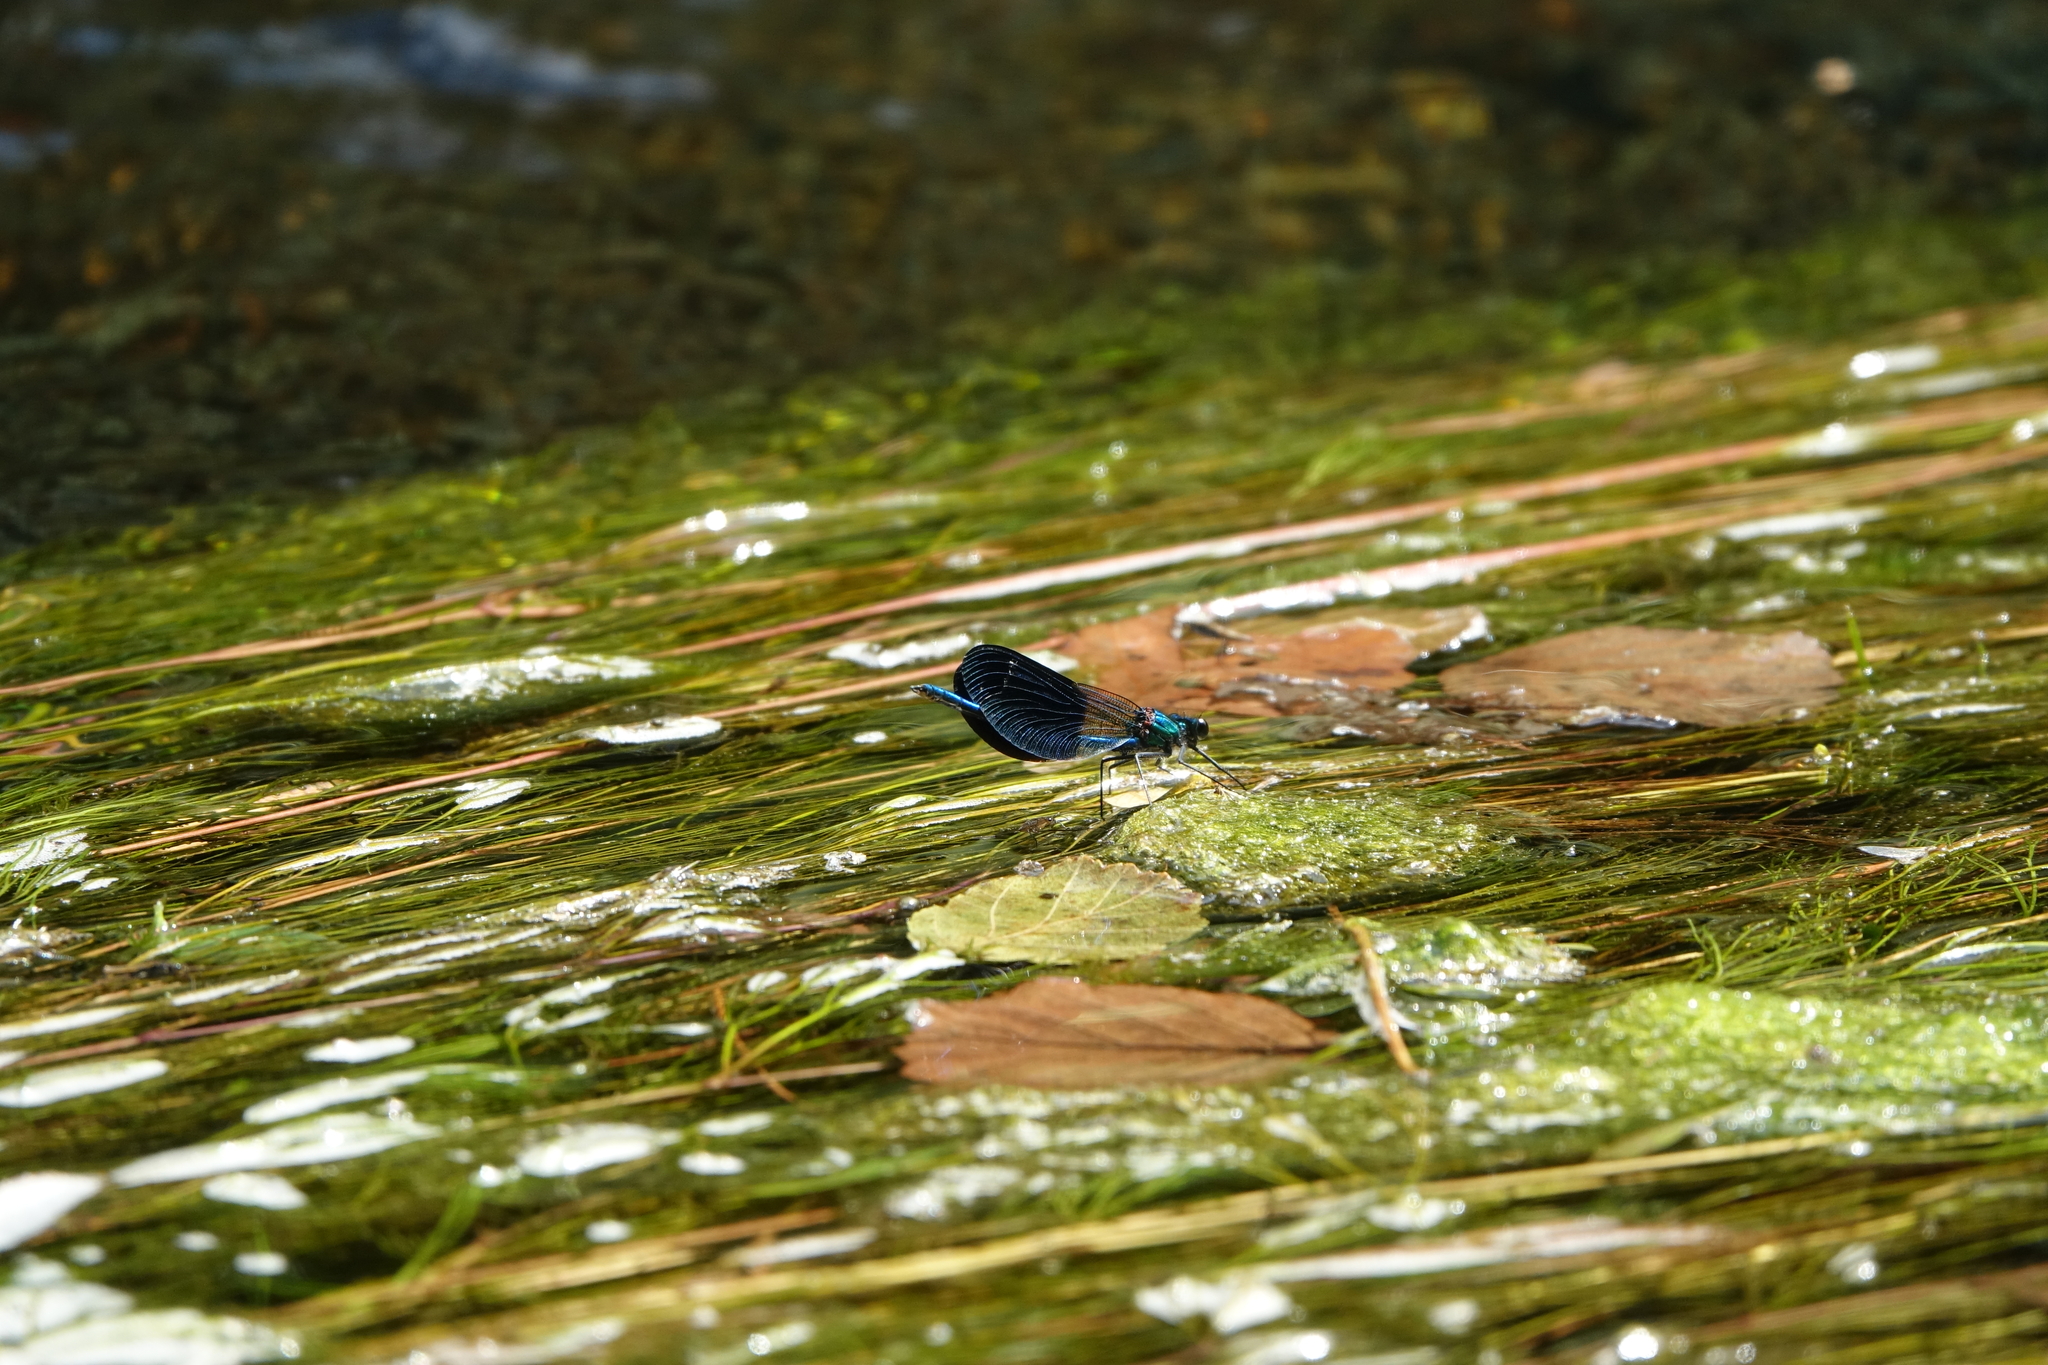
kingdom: Animalia
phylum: Arthropoda
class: Insecta
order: Odonata
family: Calopterygidae
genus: Calopteryx
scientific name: Calopteryx xanthostoma
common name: Western demoiselle
